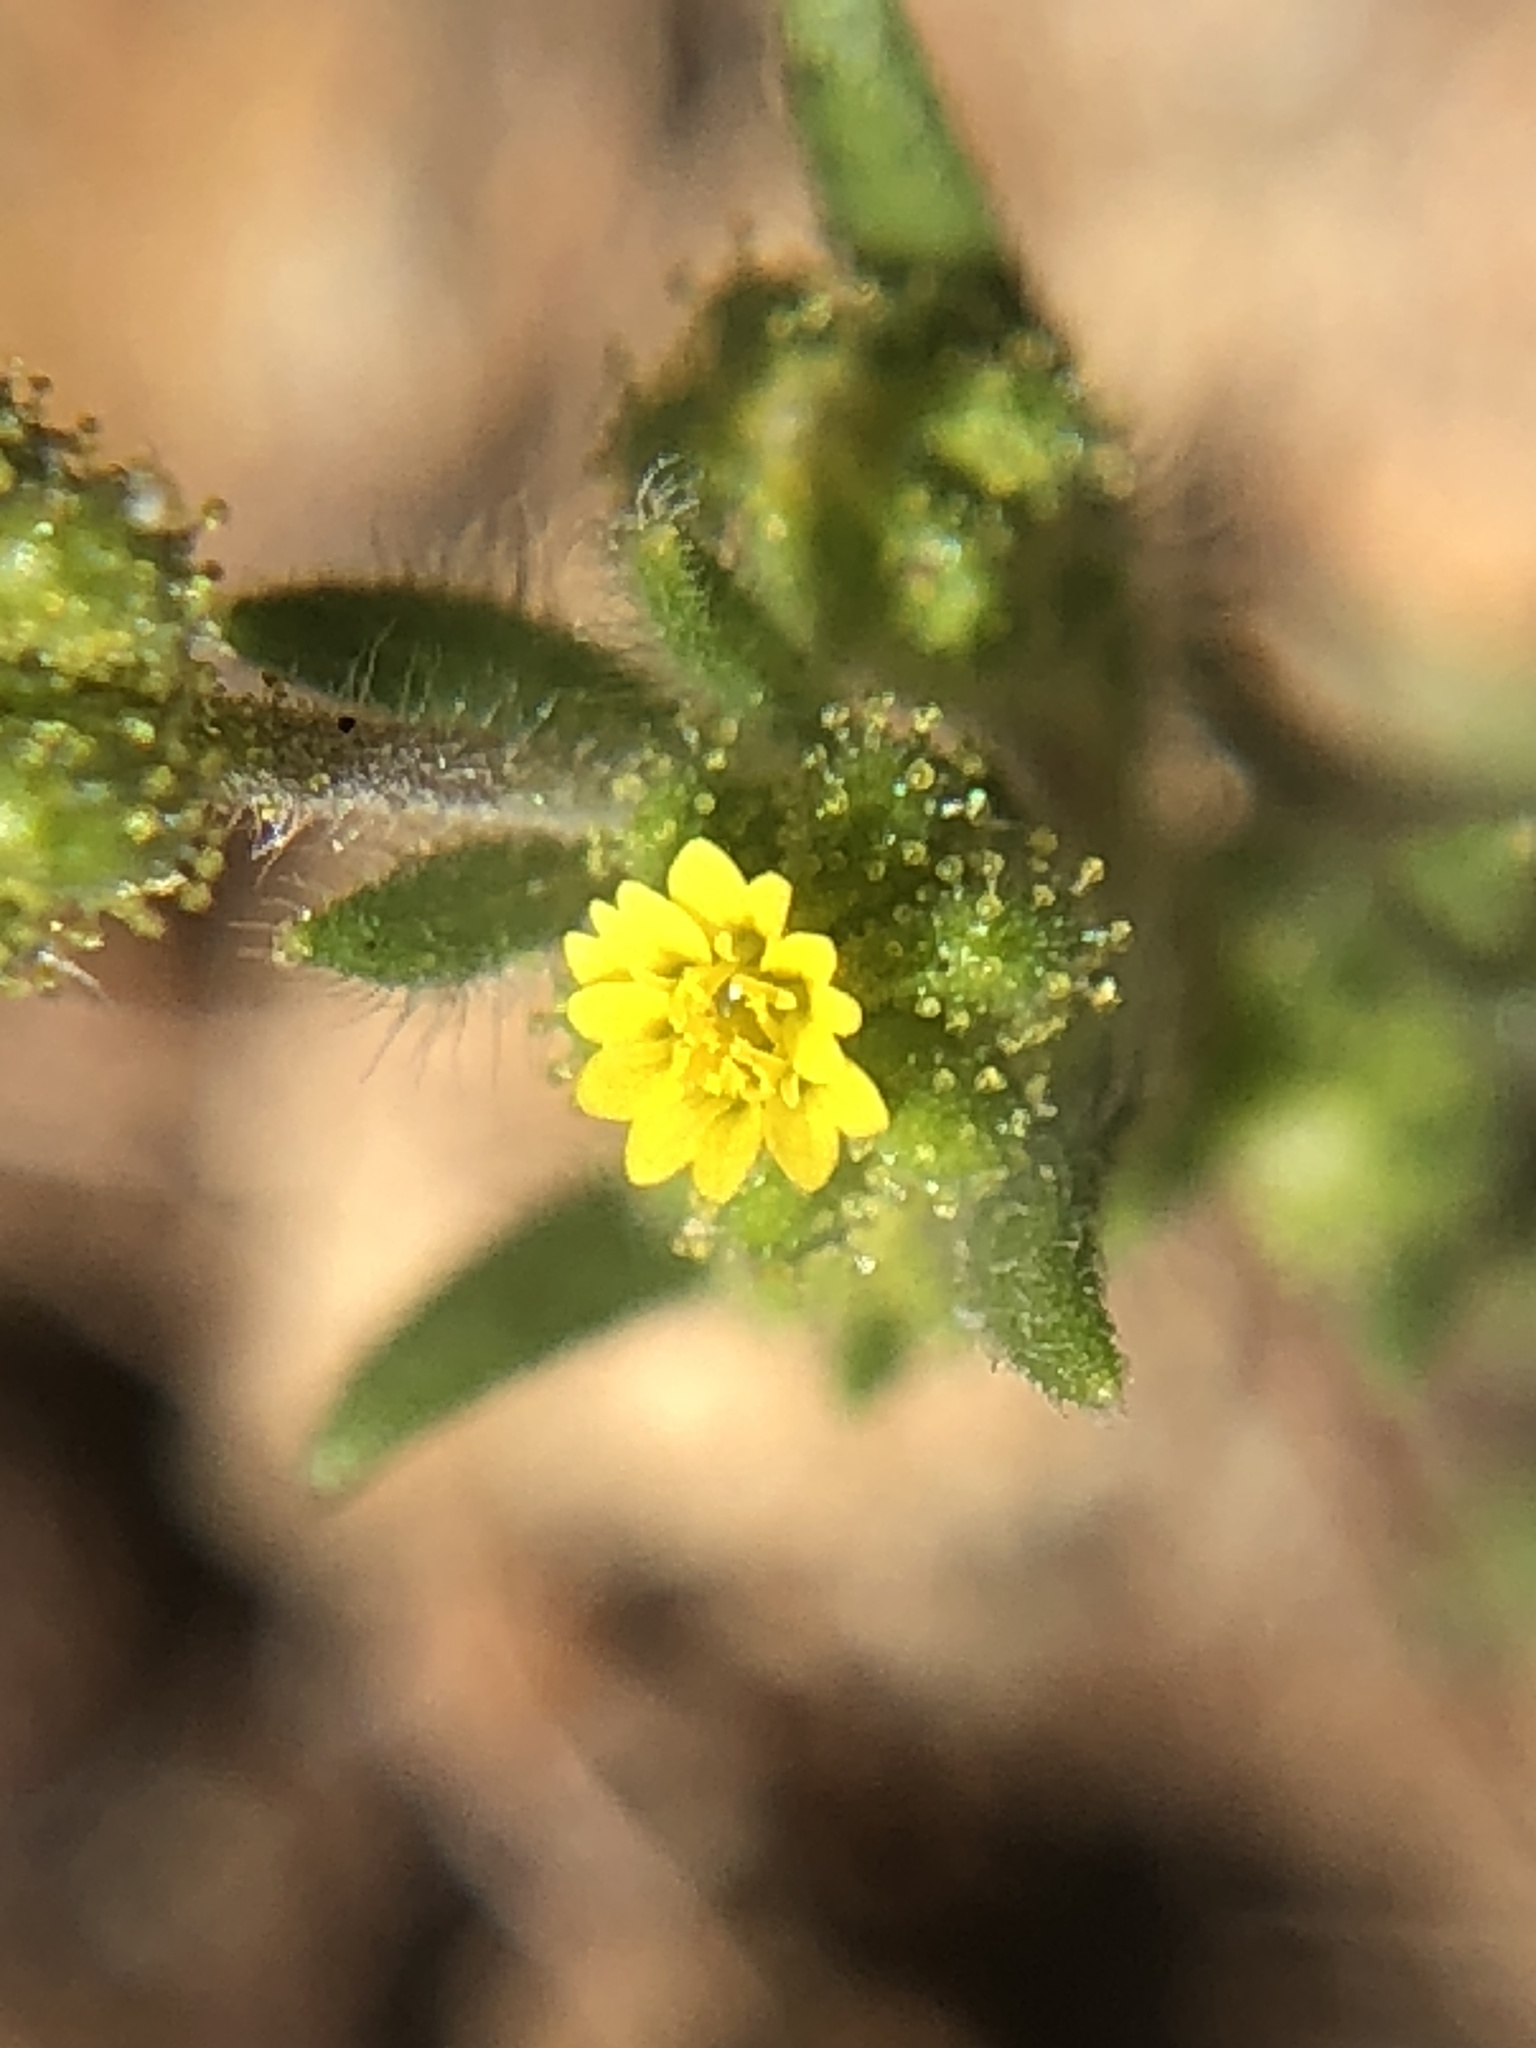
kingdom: Plantae
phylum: Tracheophyta
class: Magnoliopsida
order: Asterales
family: Asteraceae
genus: Madia
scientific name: Madia exigua
